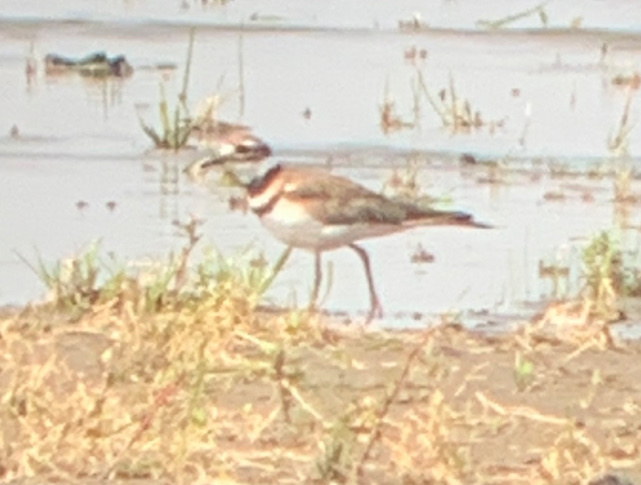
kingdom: Animalia
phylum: Chordata
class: Aves
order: Charadriiformes
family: Charadriidae
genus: Charadrius
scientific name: Charadrius vociferus
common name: Killdeer
